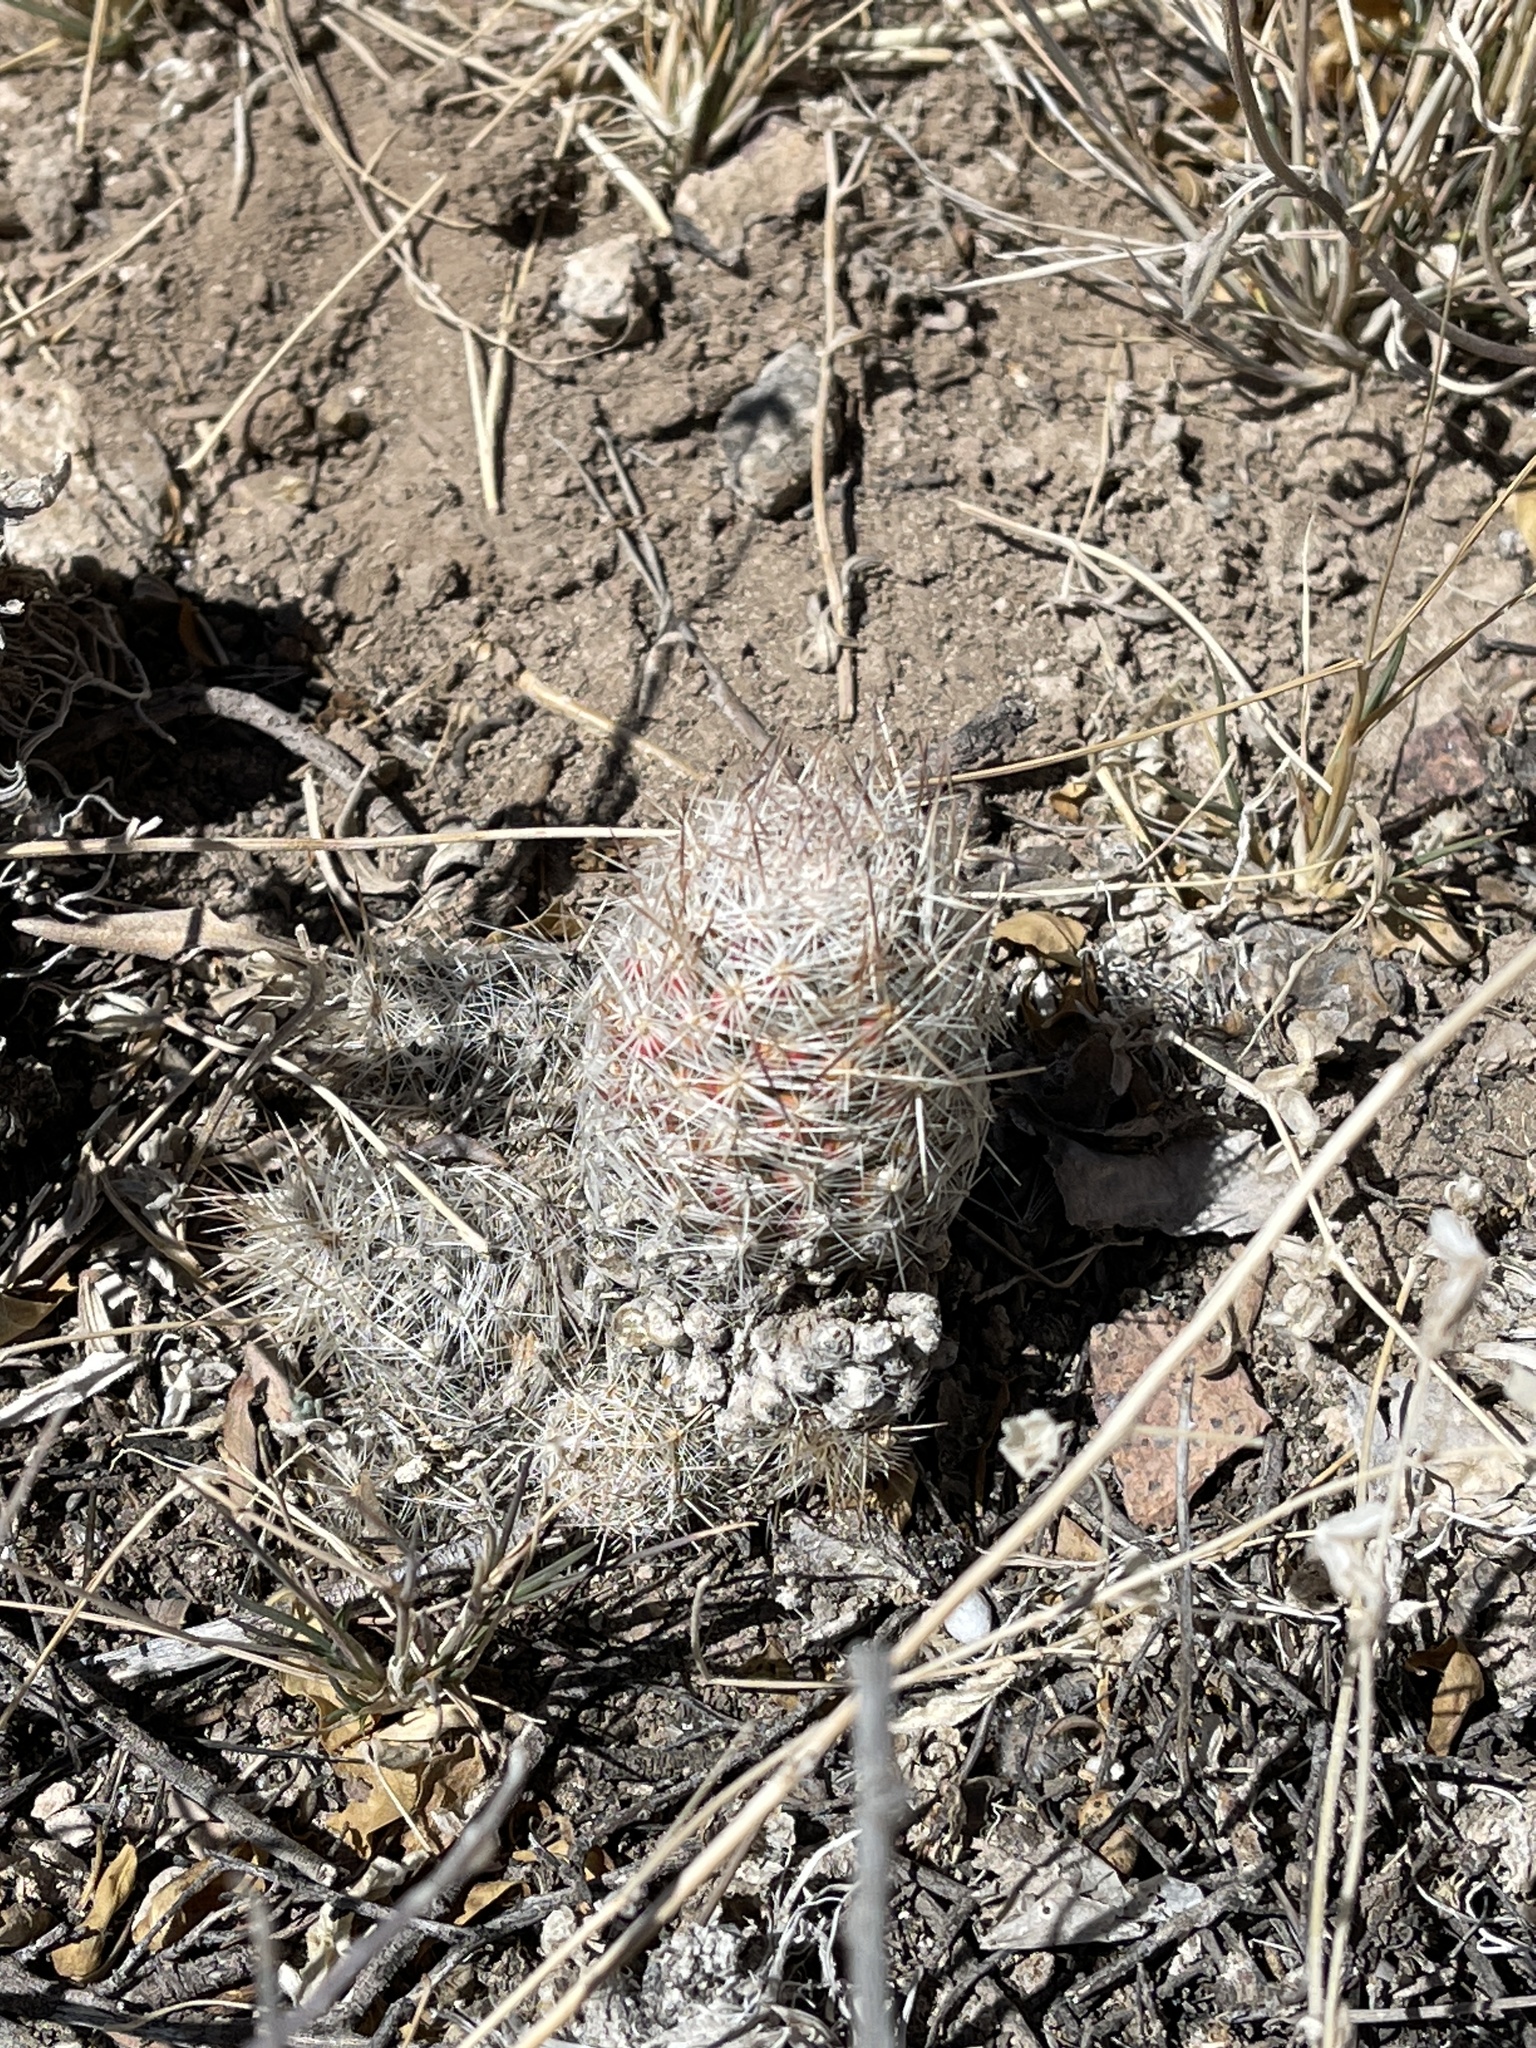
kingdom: Plantae
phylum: Tracheophyta
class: Magnoliopsida
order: Caryophyllales
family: Cactaceae
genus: Pelecyphora
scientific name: Pelecyphora tuberculosa
